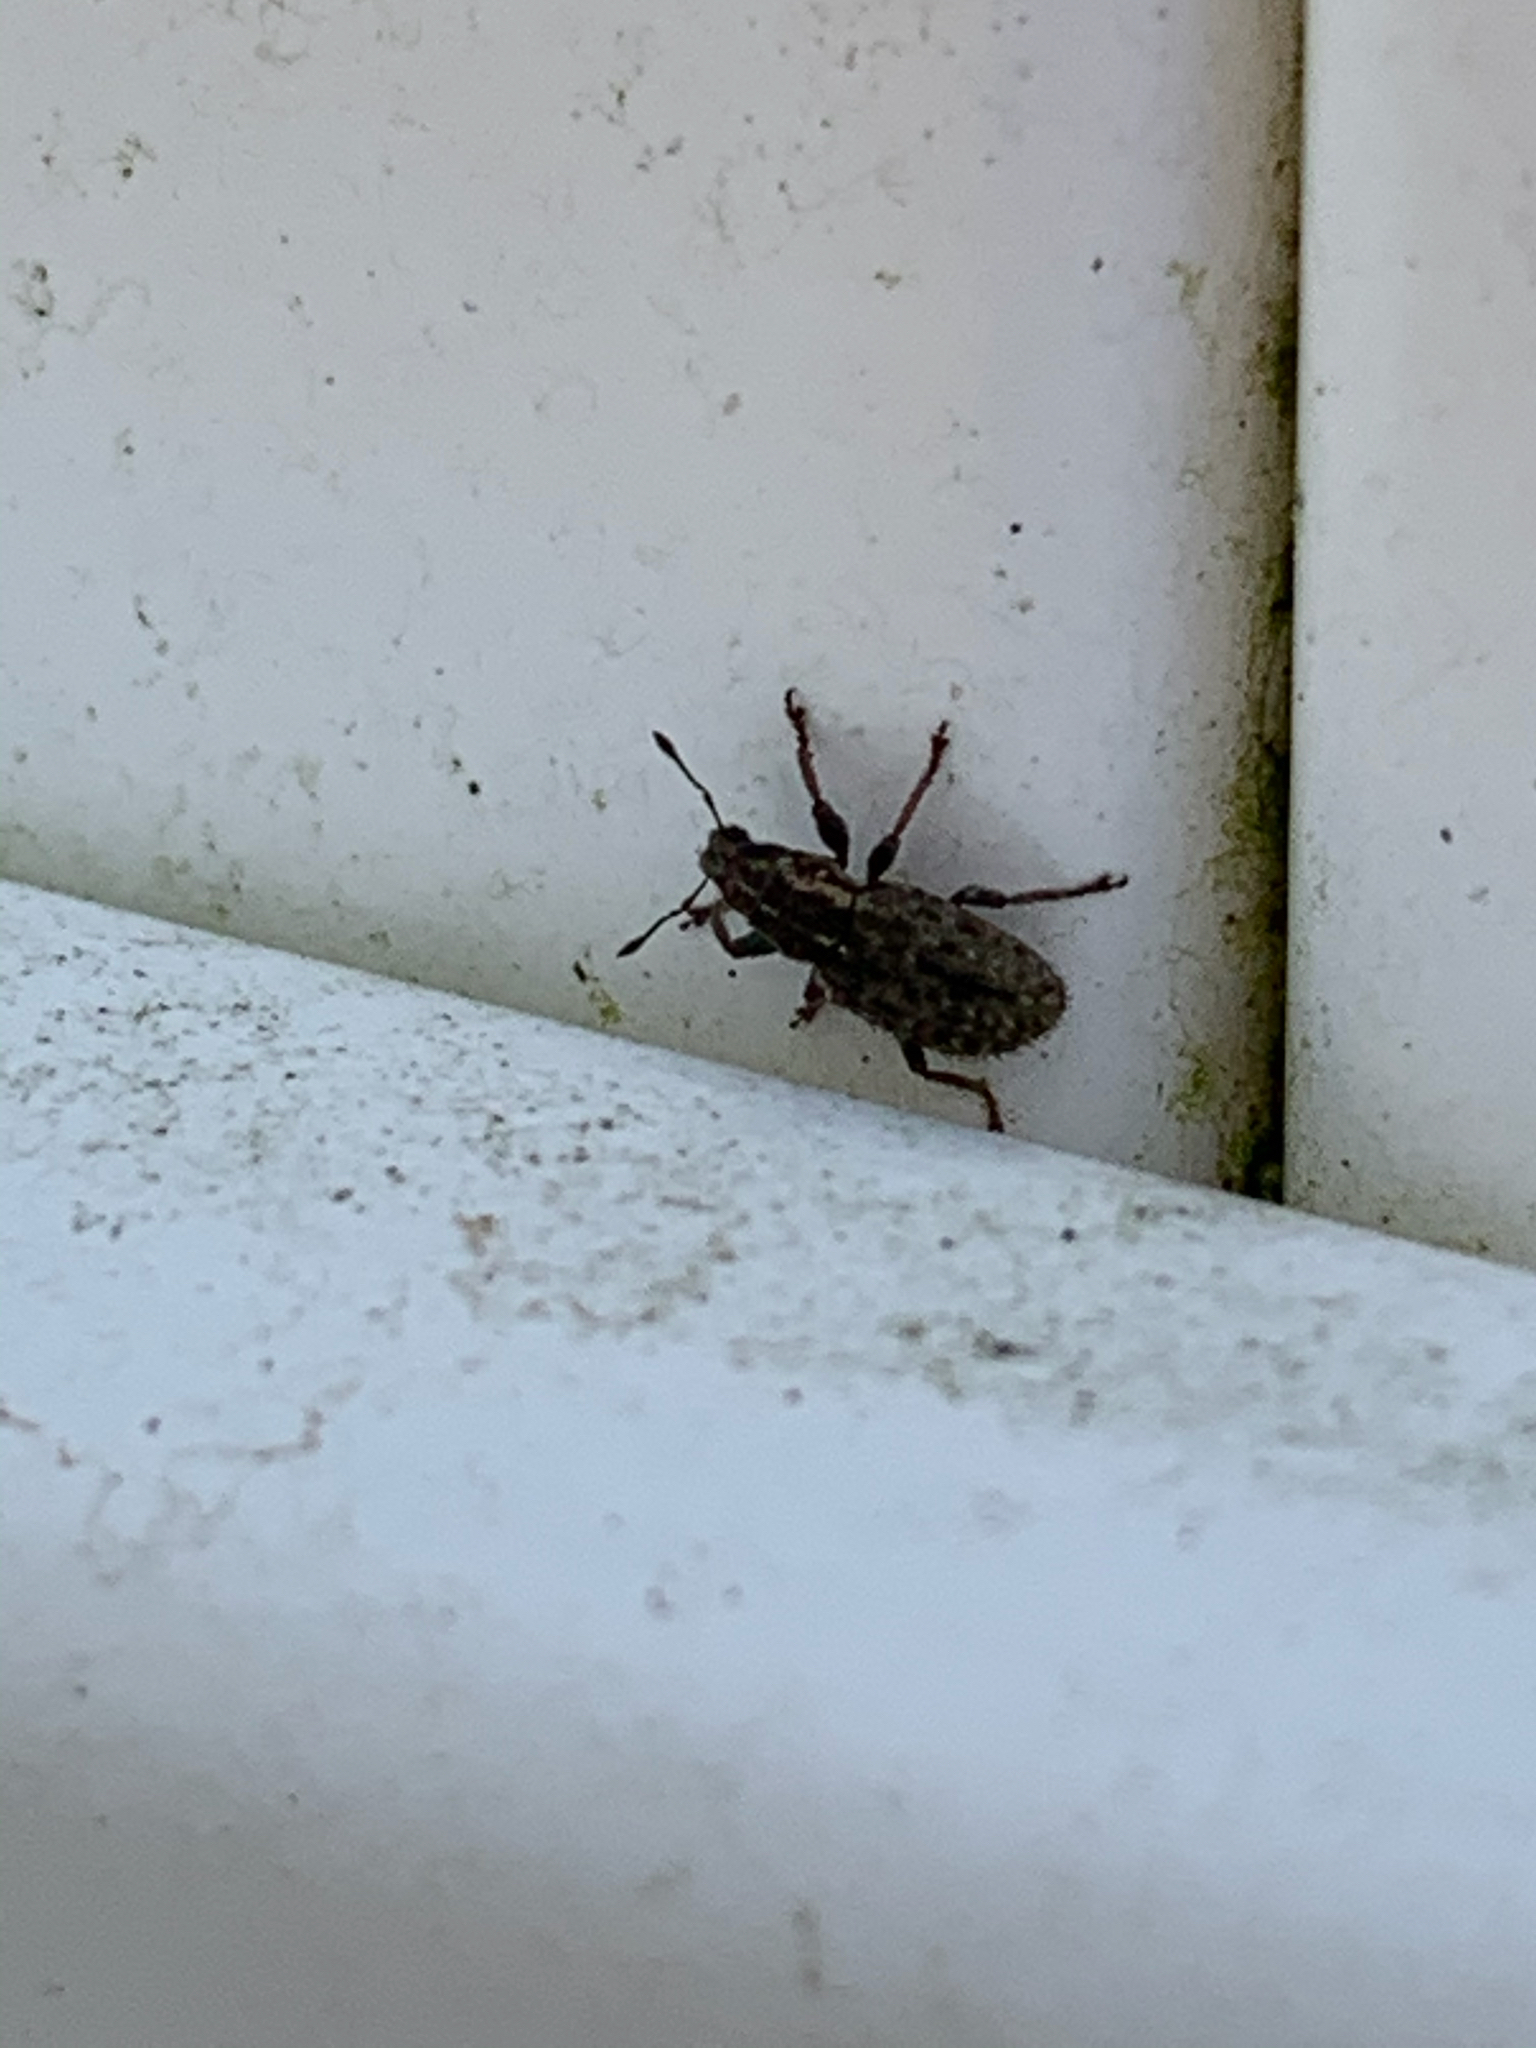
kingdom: Animalia
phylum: Arthropoda
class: Insecta
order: Coleoptera
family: Curculionidae
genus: Sitona
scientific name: Sitona hispidulus
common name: Clover weevil
